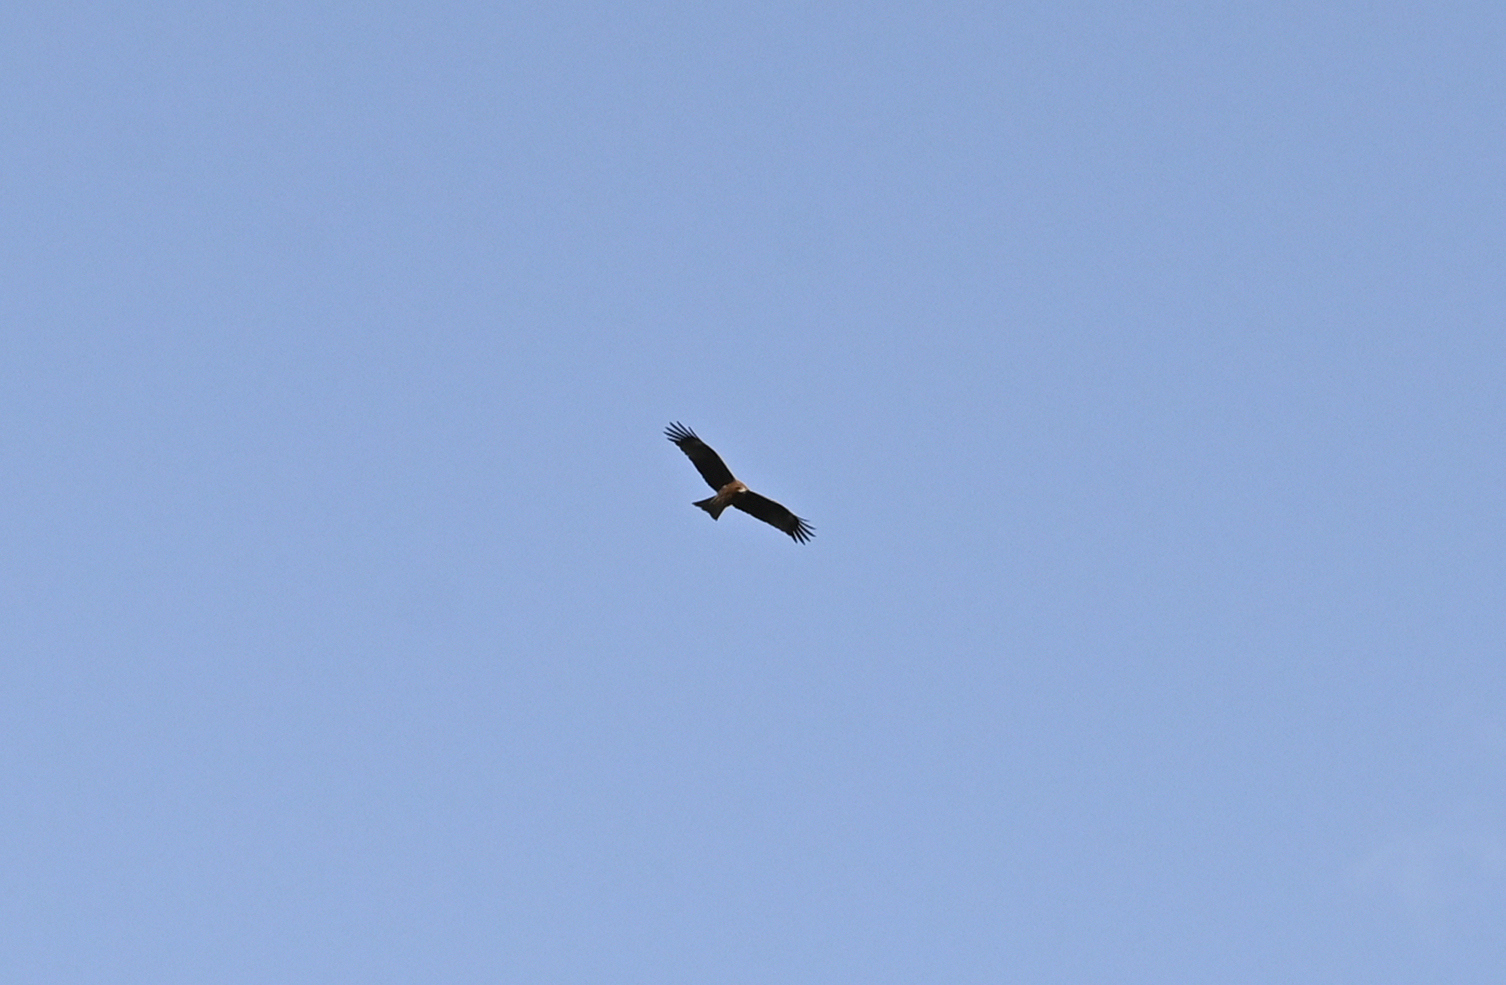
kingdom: Animalia
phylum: Chordata
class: Aves
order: Accipitriformes
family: Accipitridae
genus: Milvus
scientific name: Milvus migrans
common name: Black kite
